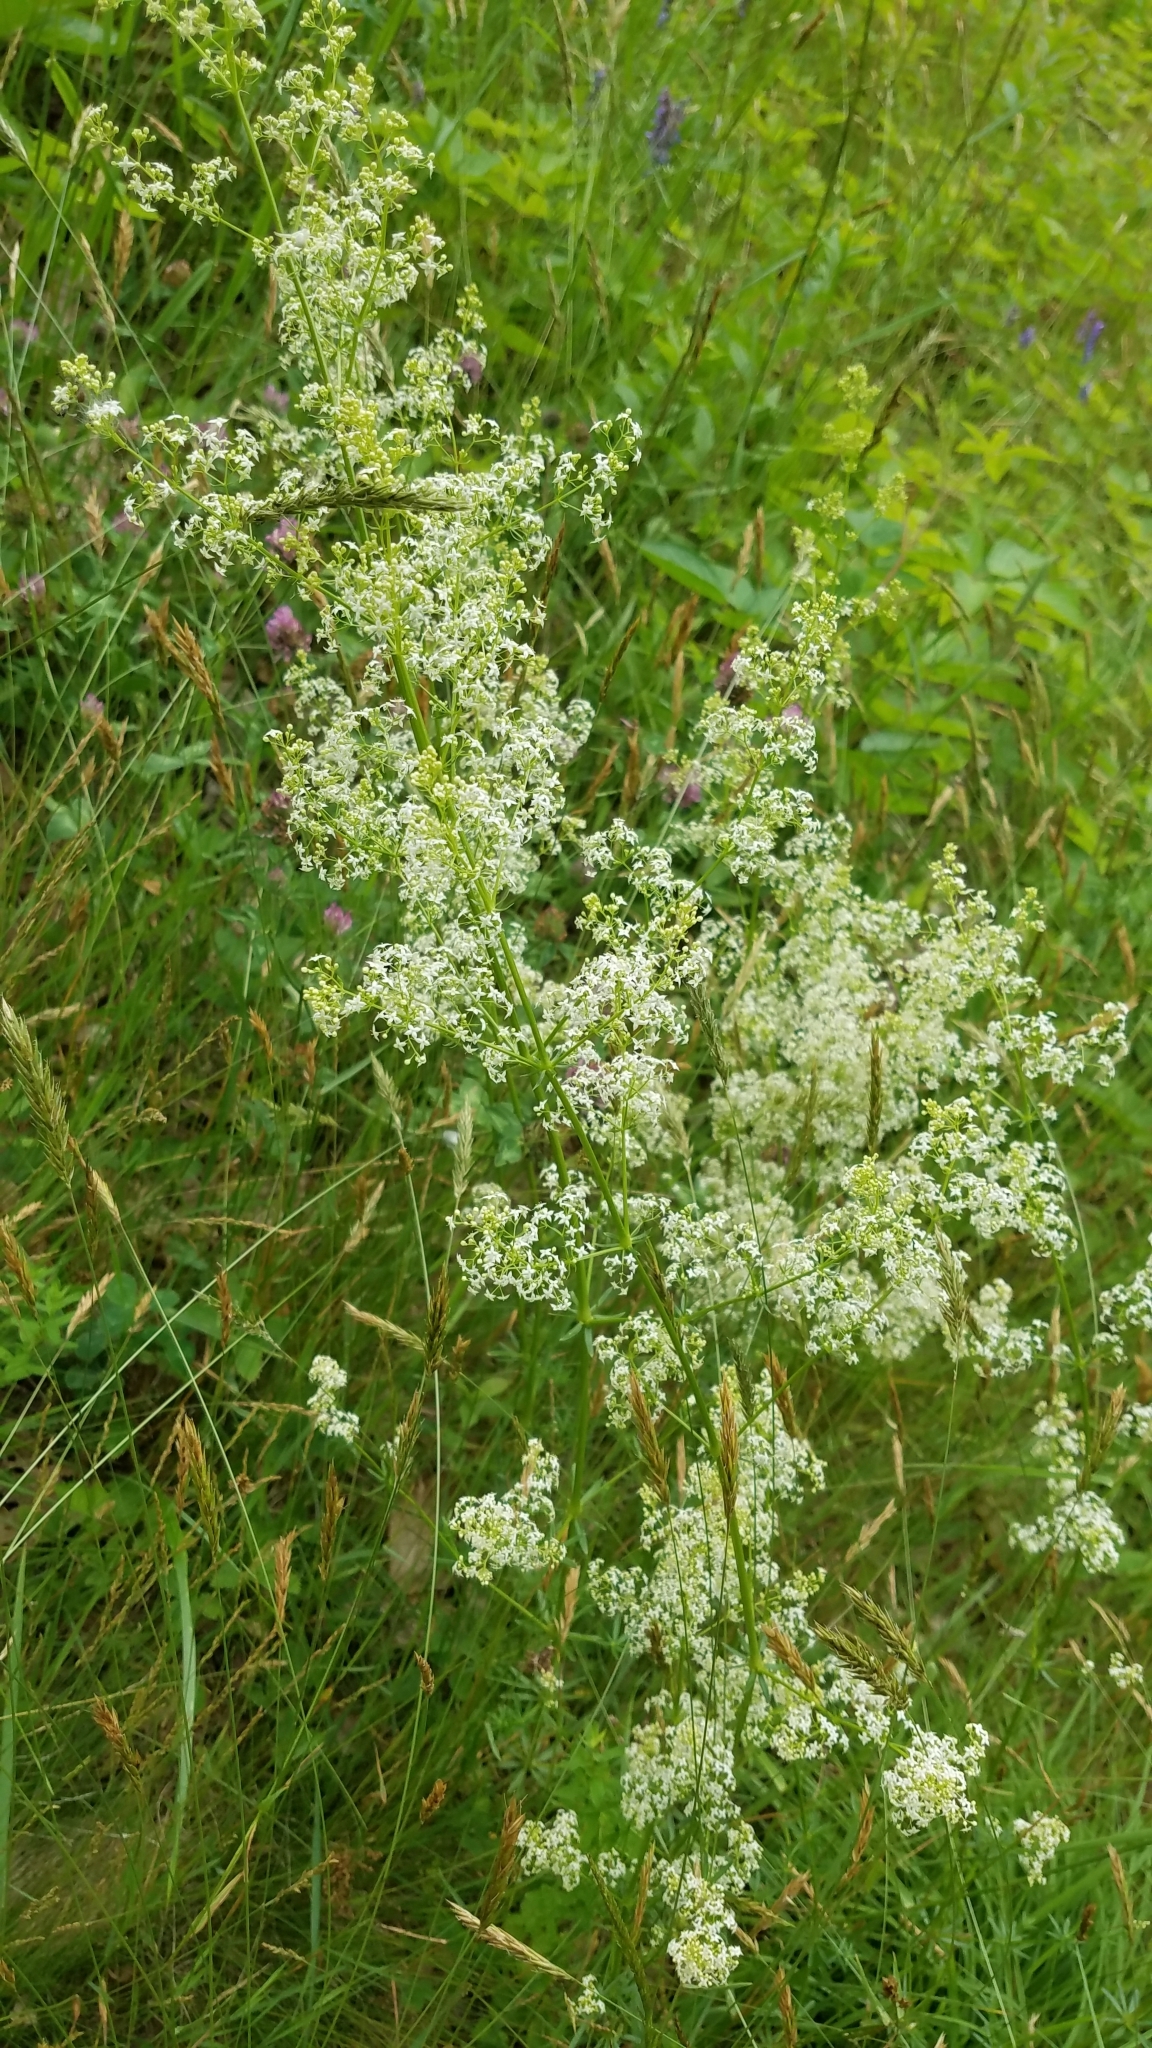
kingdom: Plantae
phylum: Tracheophyta
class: Magnoliopsida
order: Gentianales
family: Rubiaceae
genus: Galium
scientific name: Galium mollugo
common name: Hedge bedstraw
